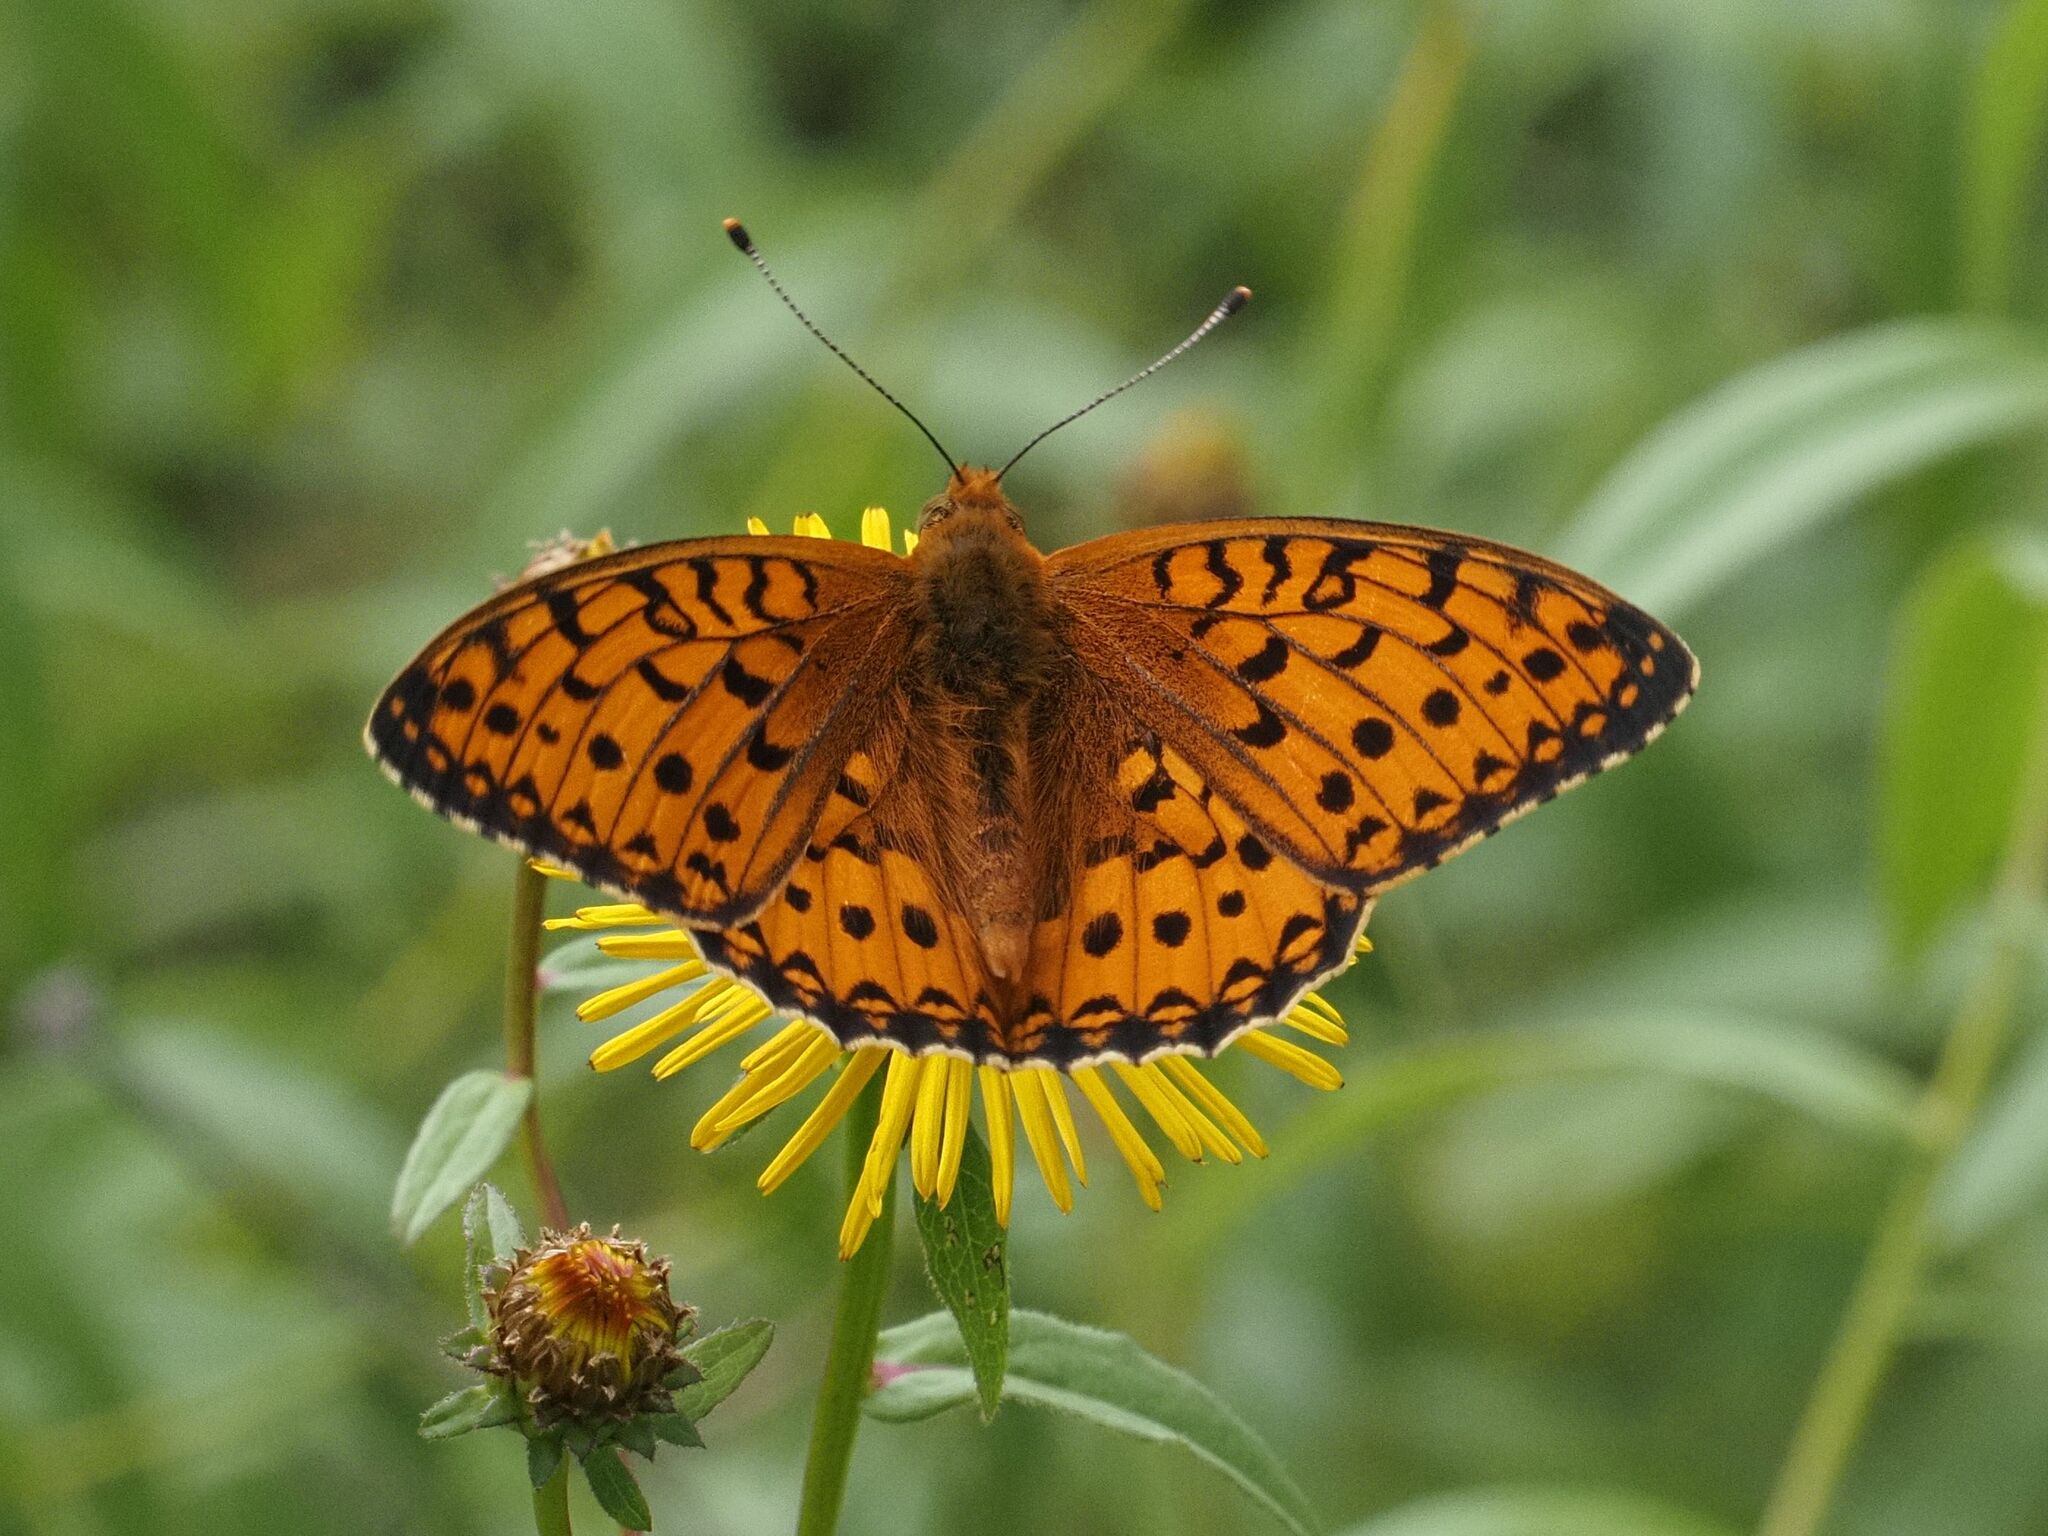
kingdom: Animalia
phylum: Arthropoda
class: Insecta
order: Lepidoptera
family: Nymphalidae
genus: Speyeria
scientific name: Speyeria aglaja
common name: Dark green fritillary
